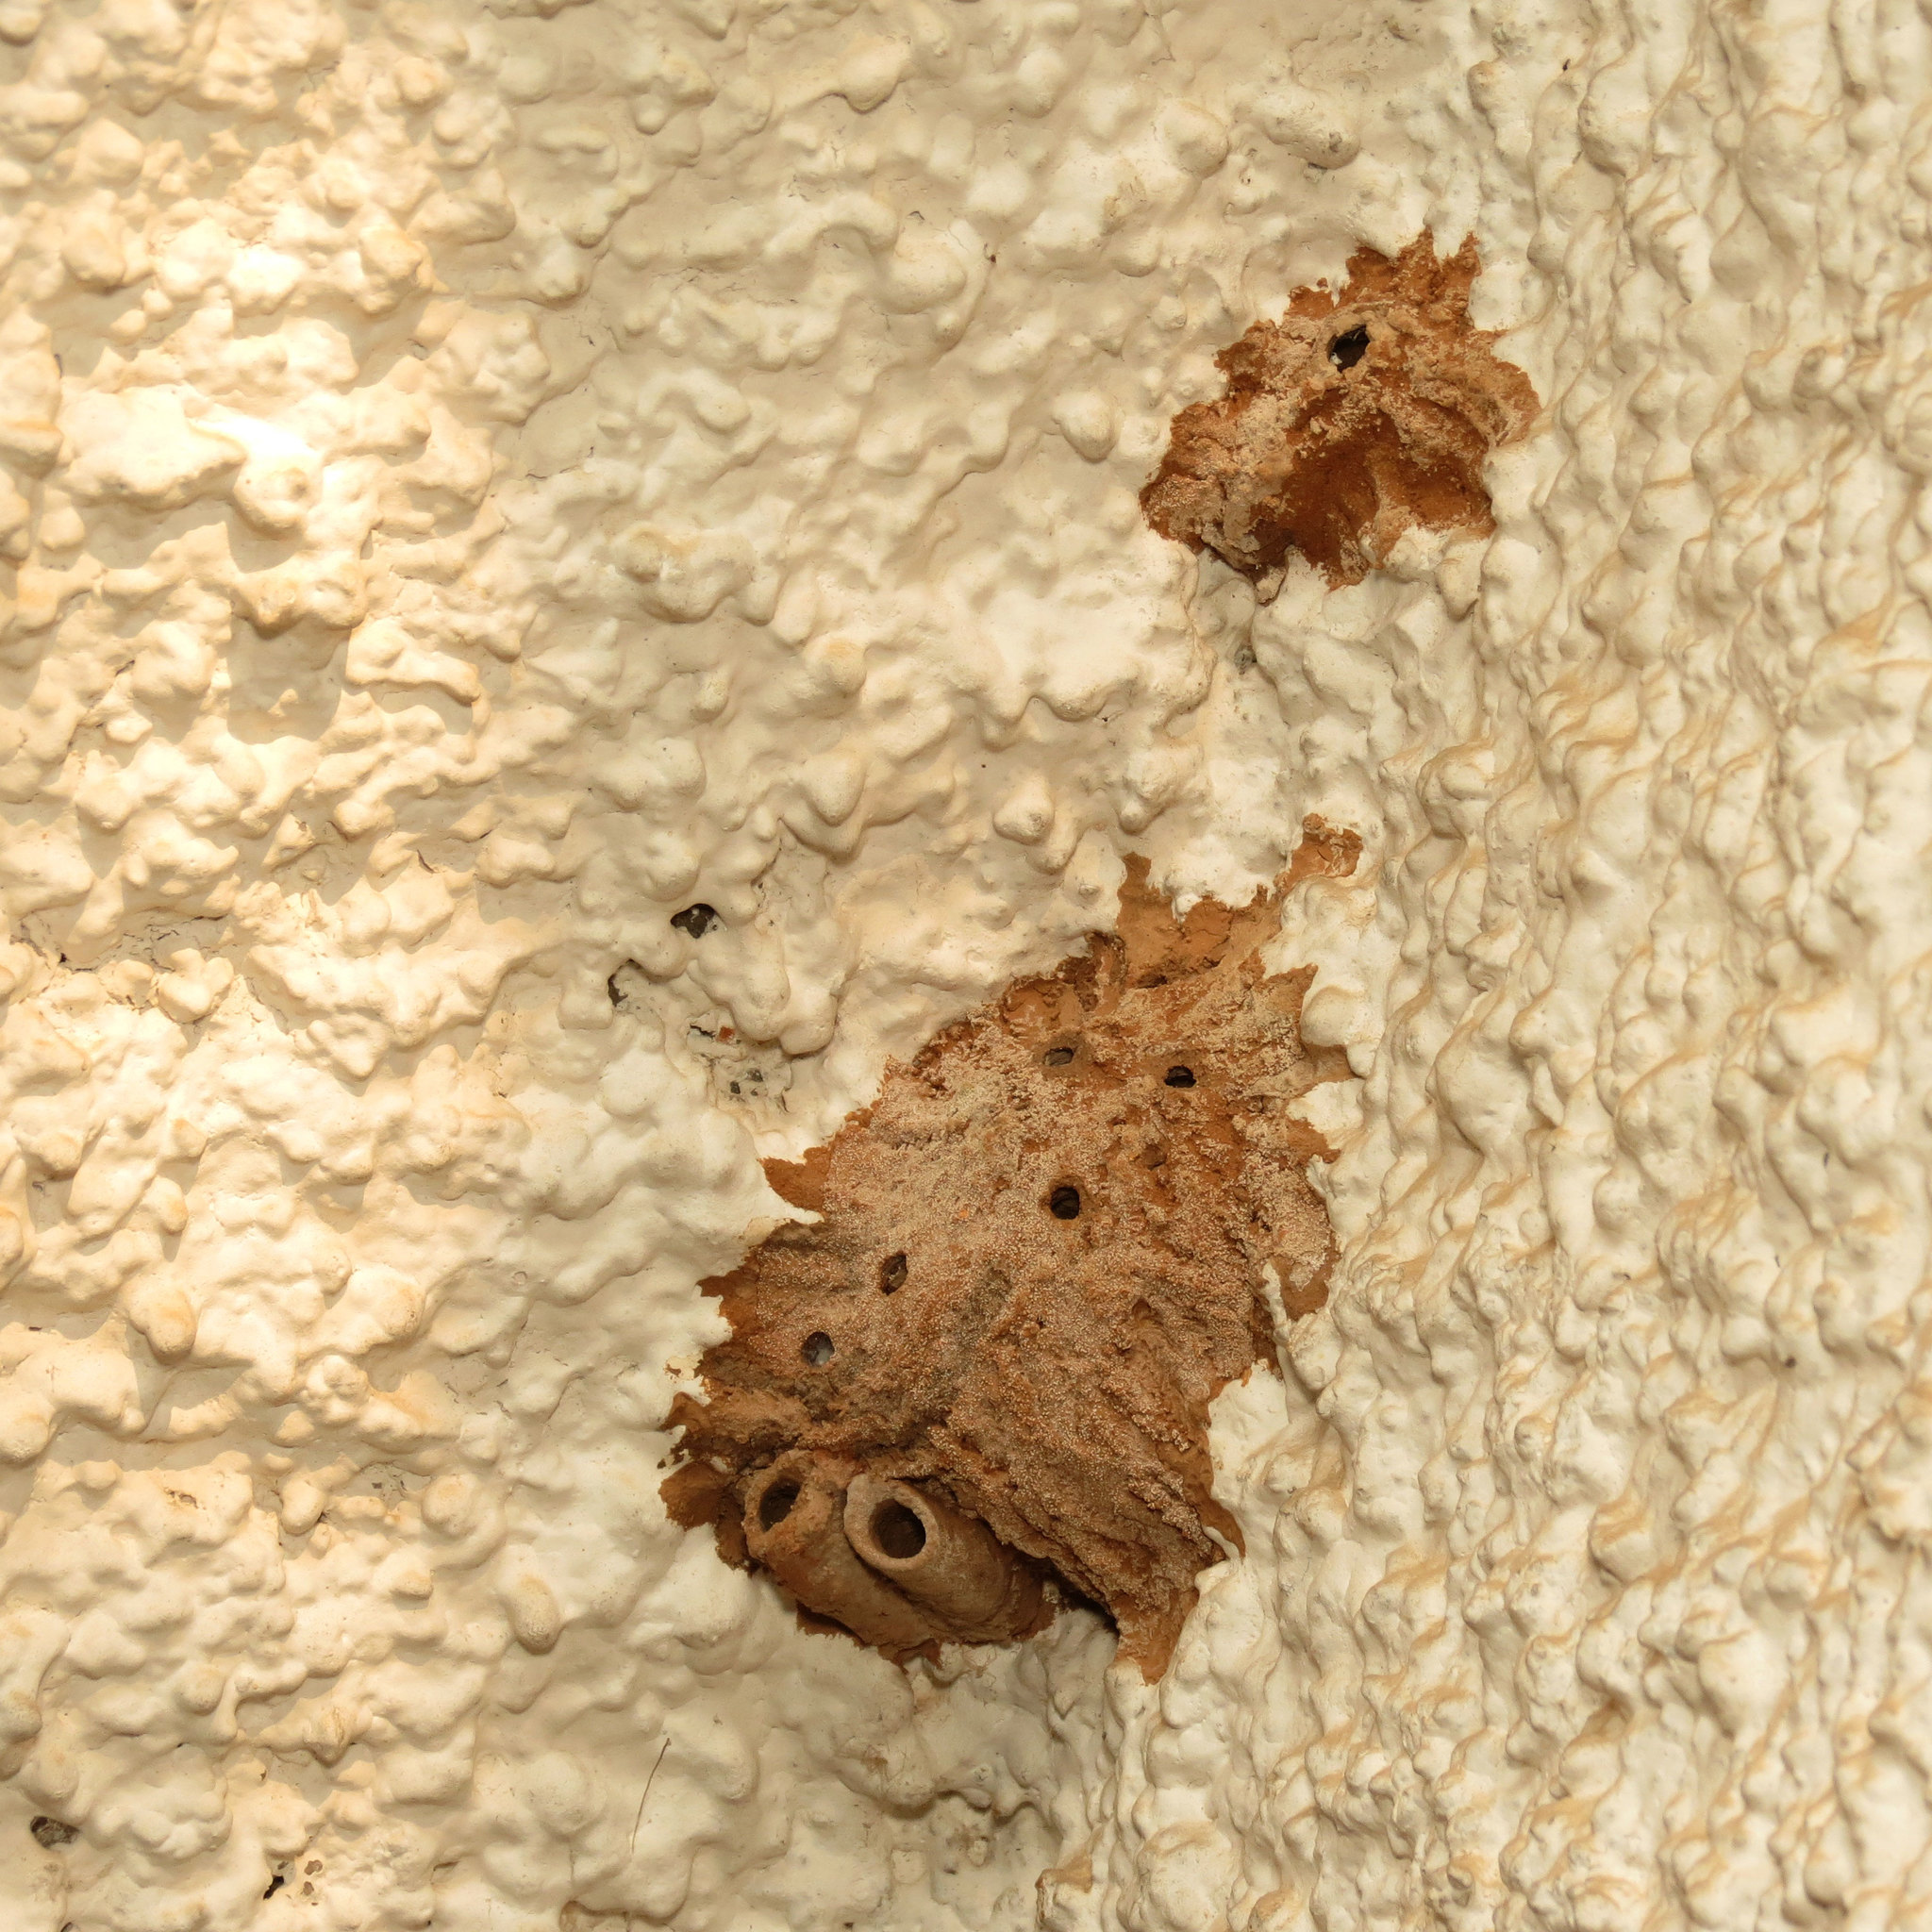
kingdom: Animalia
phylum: Arthropoda
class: Insecta
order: Hymenoptera
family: Sphecidae
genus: Sceliphron
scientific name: Sceliphron
